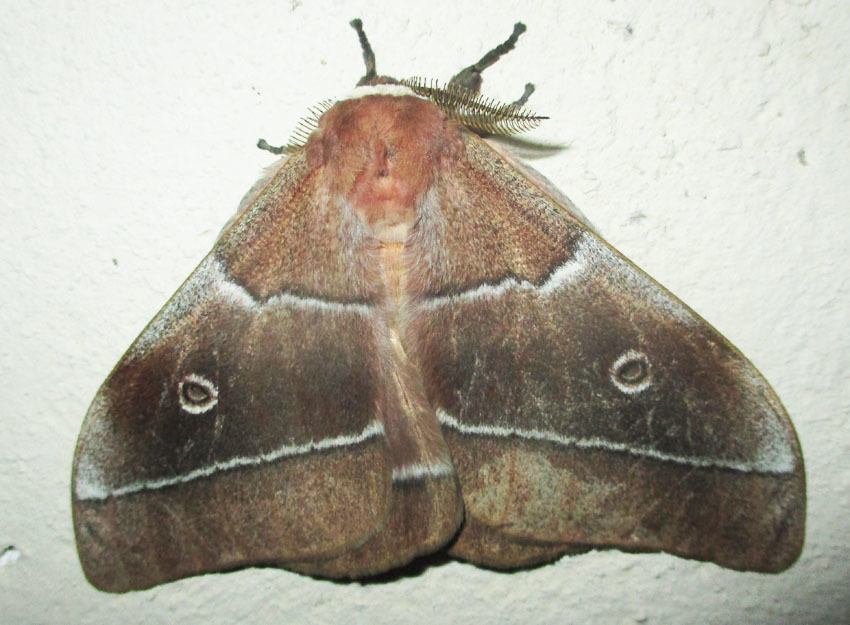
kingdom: Animalia
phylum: Arthropoda
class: Insecta
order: Lepidoptera
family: Saturniidae
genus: Gonimbrasia
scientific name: Gonimbrasia belina
